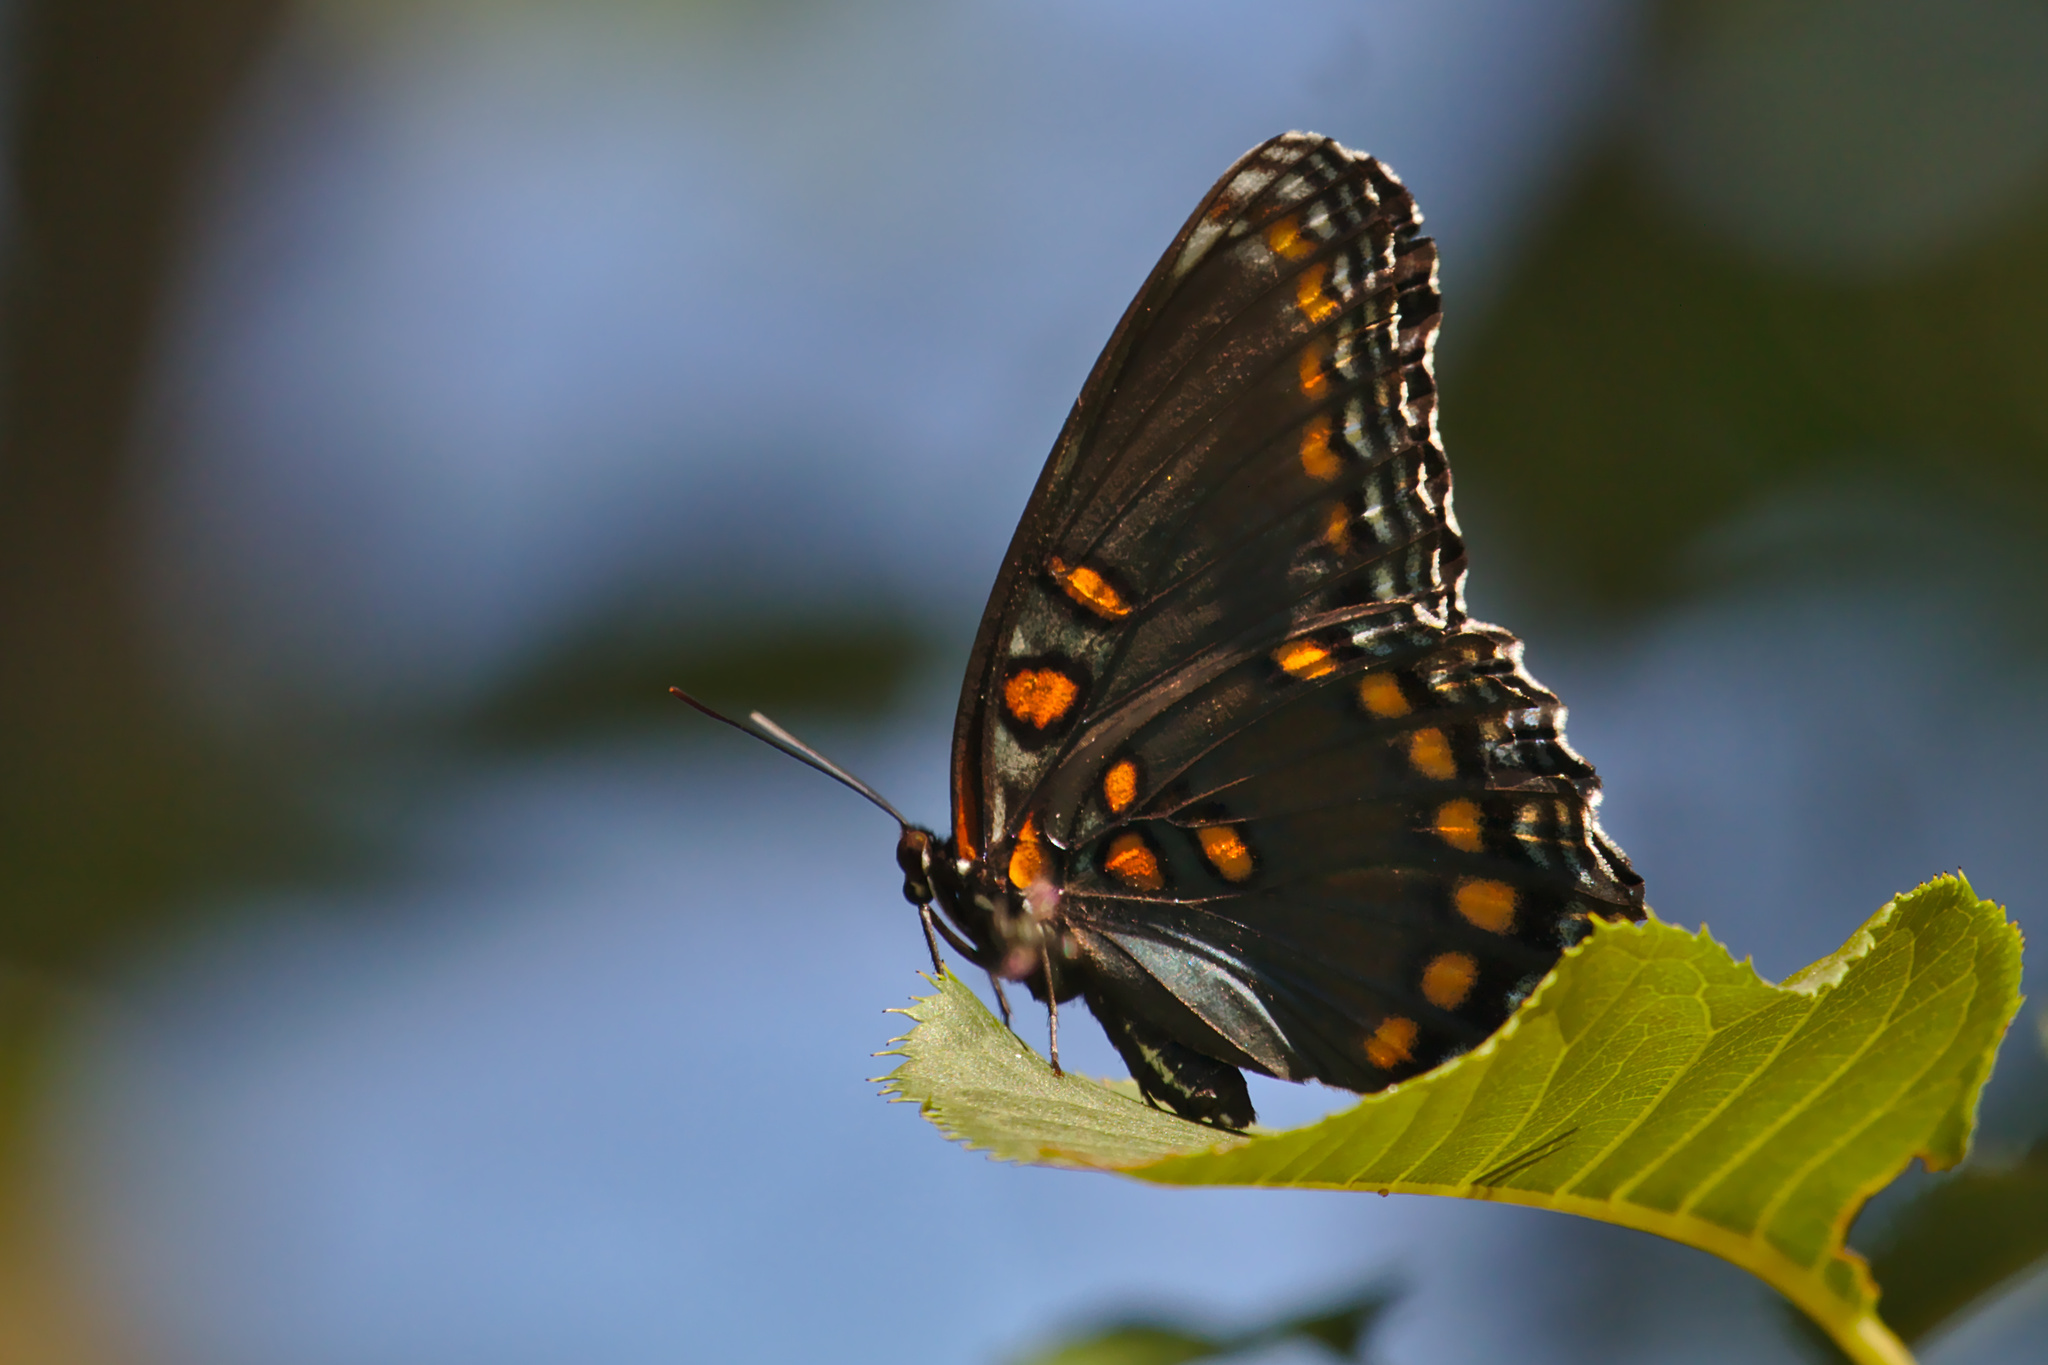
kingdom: Animalia
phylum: Arthropoda
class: Insecta
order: Lepidoptera
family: Nymphalidae
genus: Limenitis
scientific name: Limenitis astyanax
